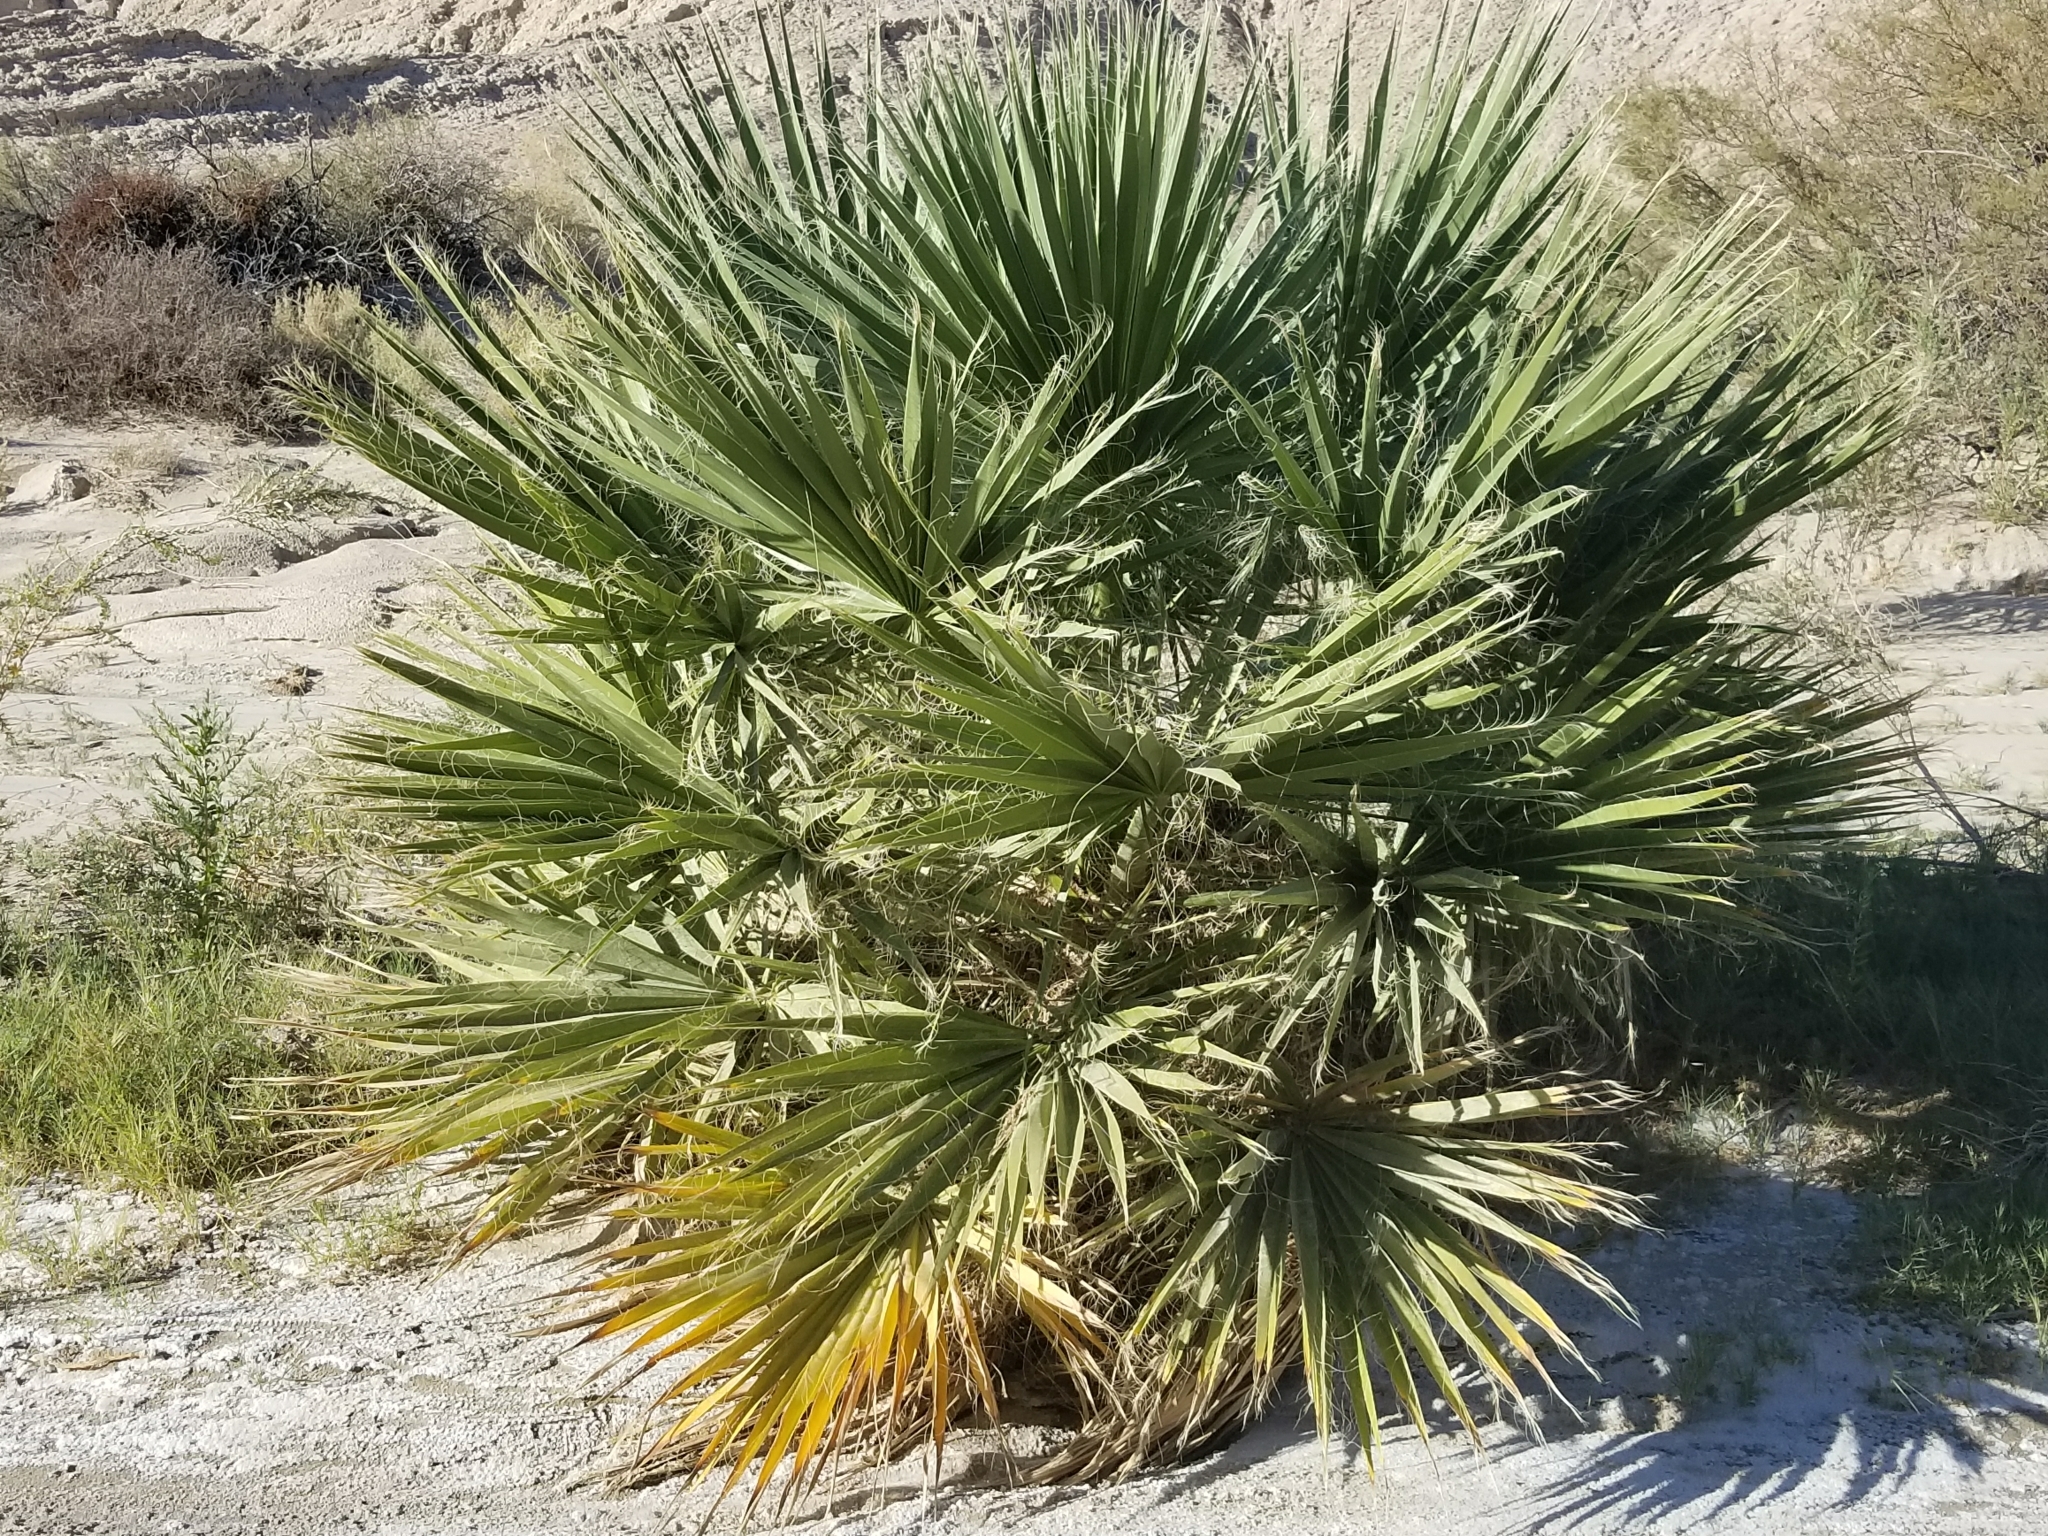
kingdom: Plantae
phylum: Tracheophyta
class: Liliopsida
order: Arecales
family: Arecaceae
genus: Washingtonia
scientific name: Washingtonia filifera
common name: California fan palm
